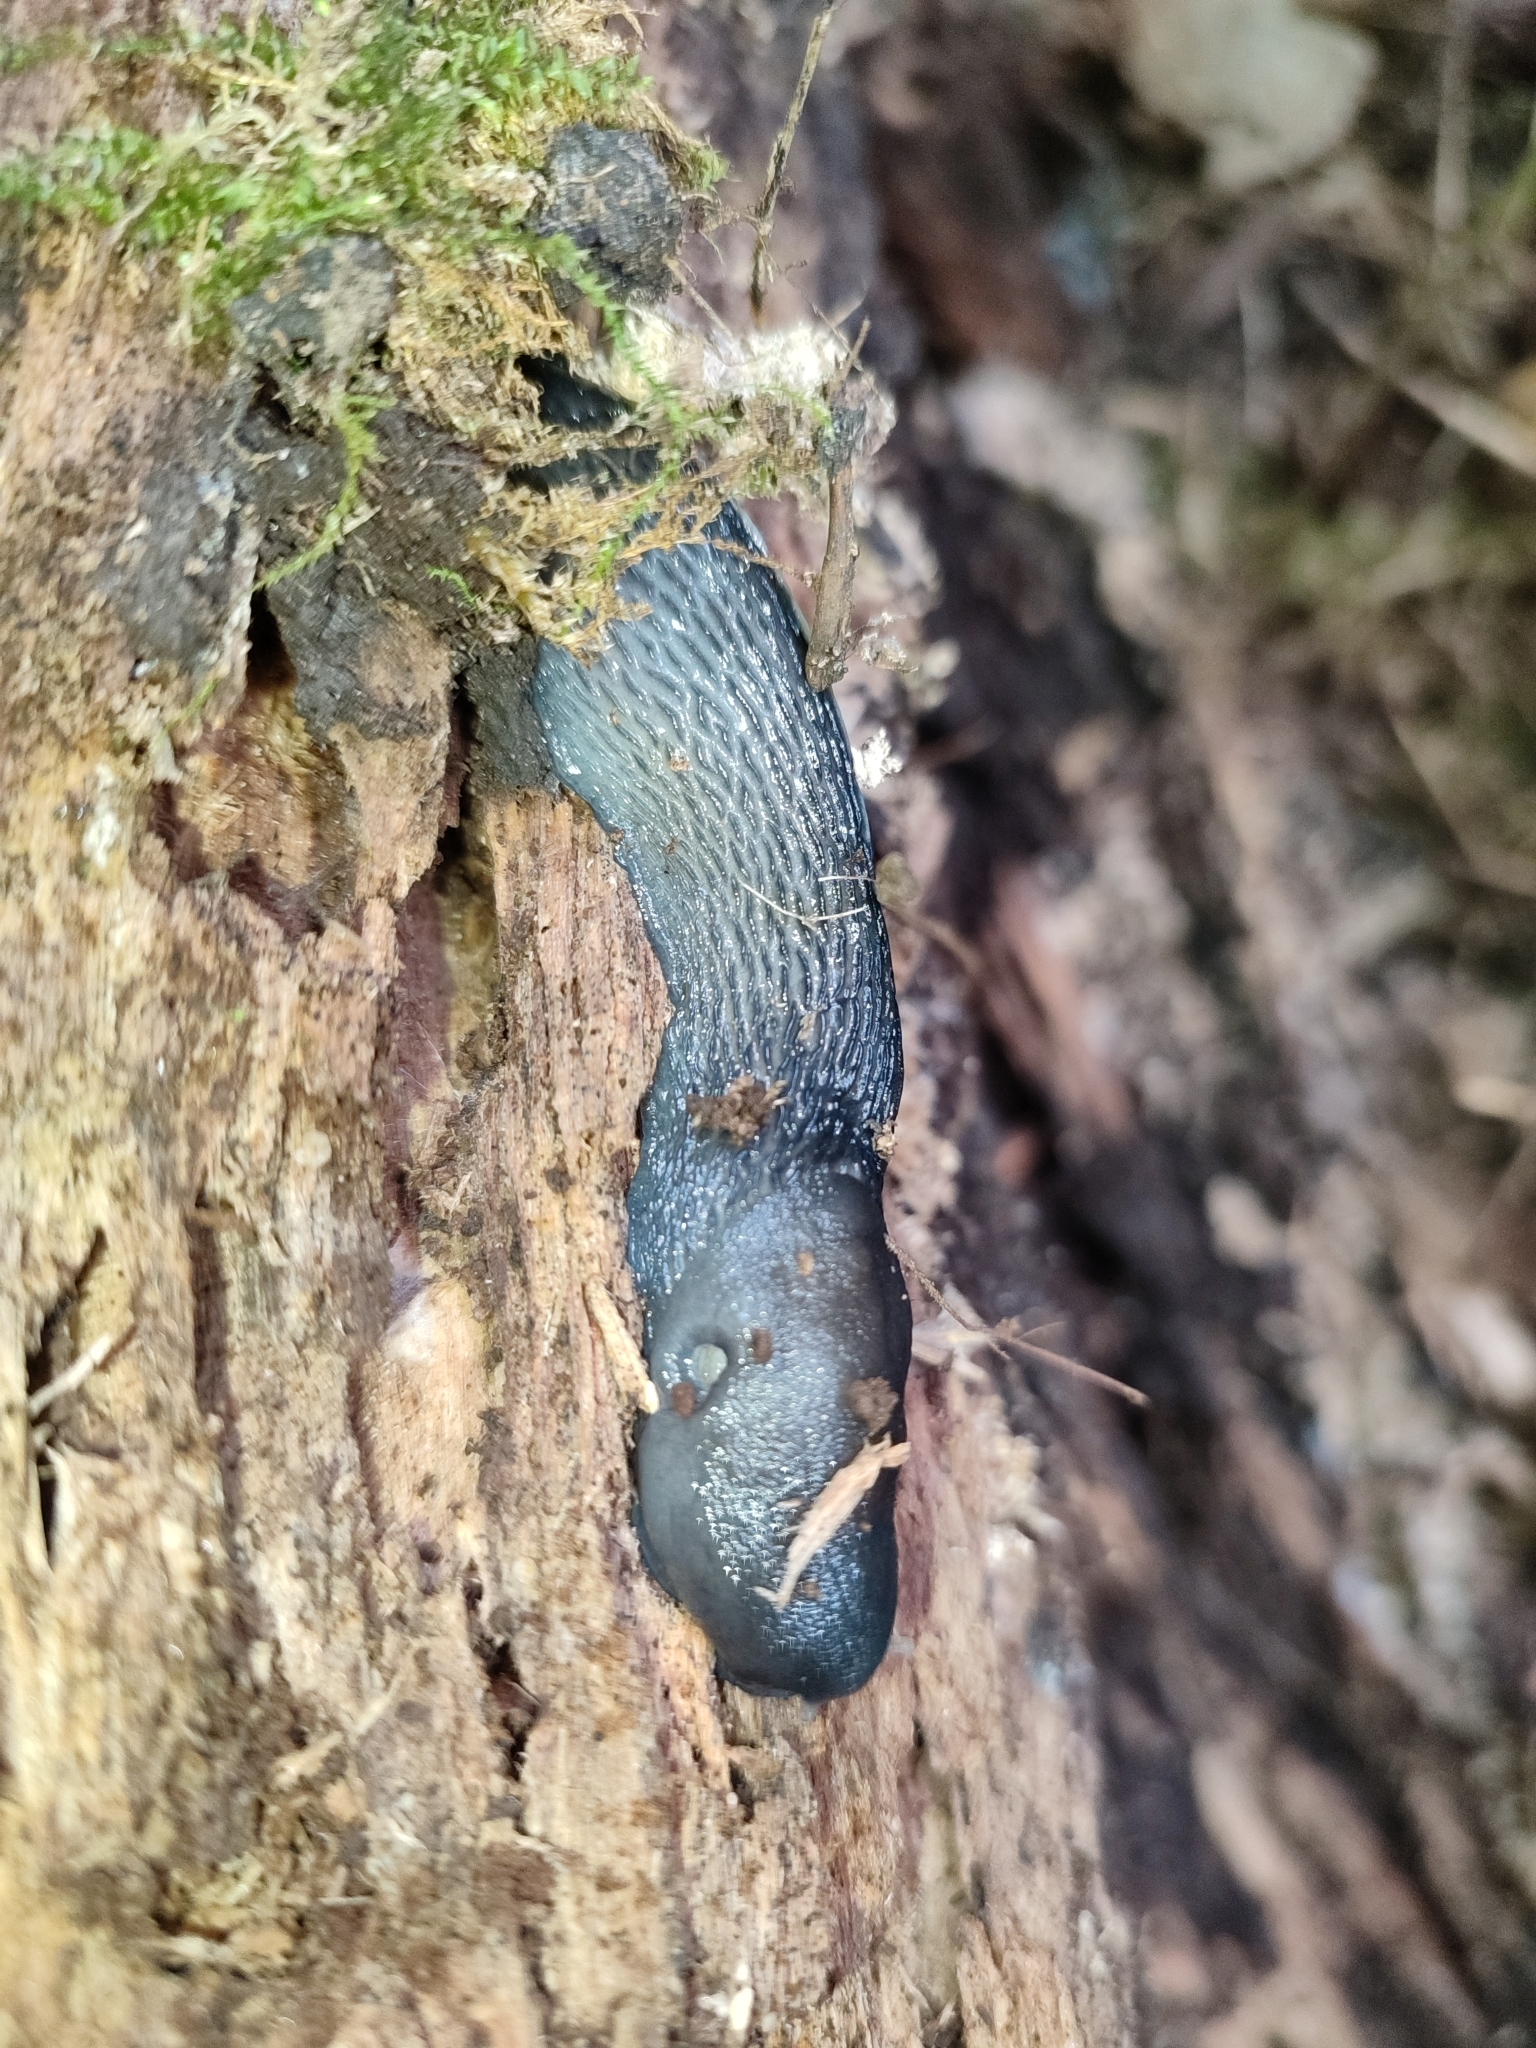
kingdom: Animalia
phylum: Mollusca
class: Gastropoda
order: Stylommatophora
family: Limacidae
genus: Limax
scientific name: Limax cinereoniger
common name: Ash-black slug
